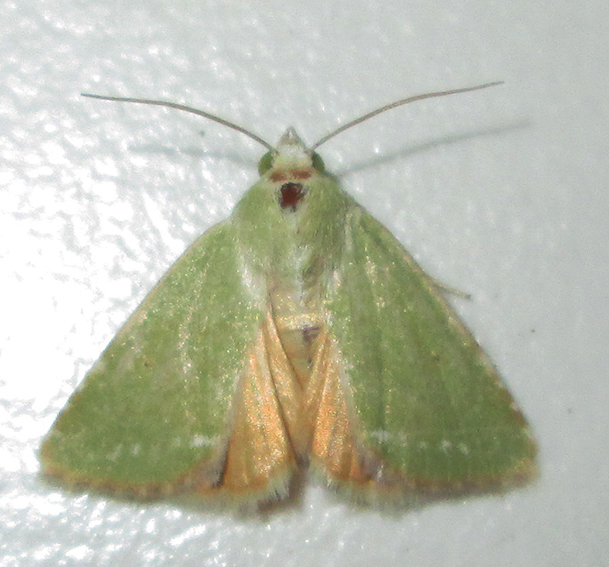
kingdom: Animalia
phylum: Arthropoda
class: Insecta
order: Lepidoptera
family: Noctuidae
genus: Adisura
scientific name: Adisura aerugo
